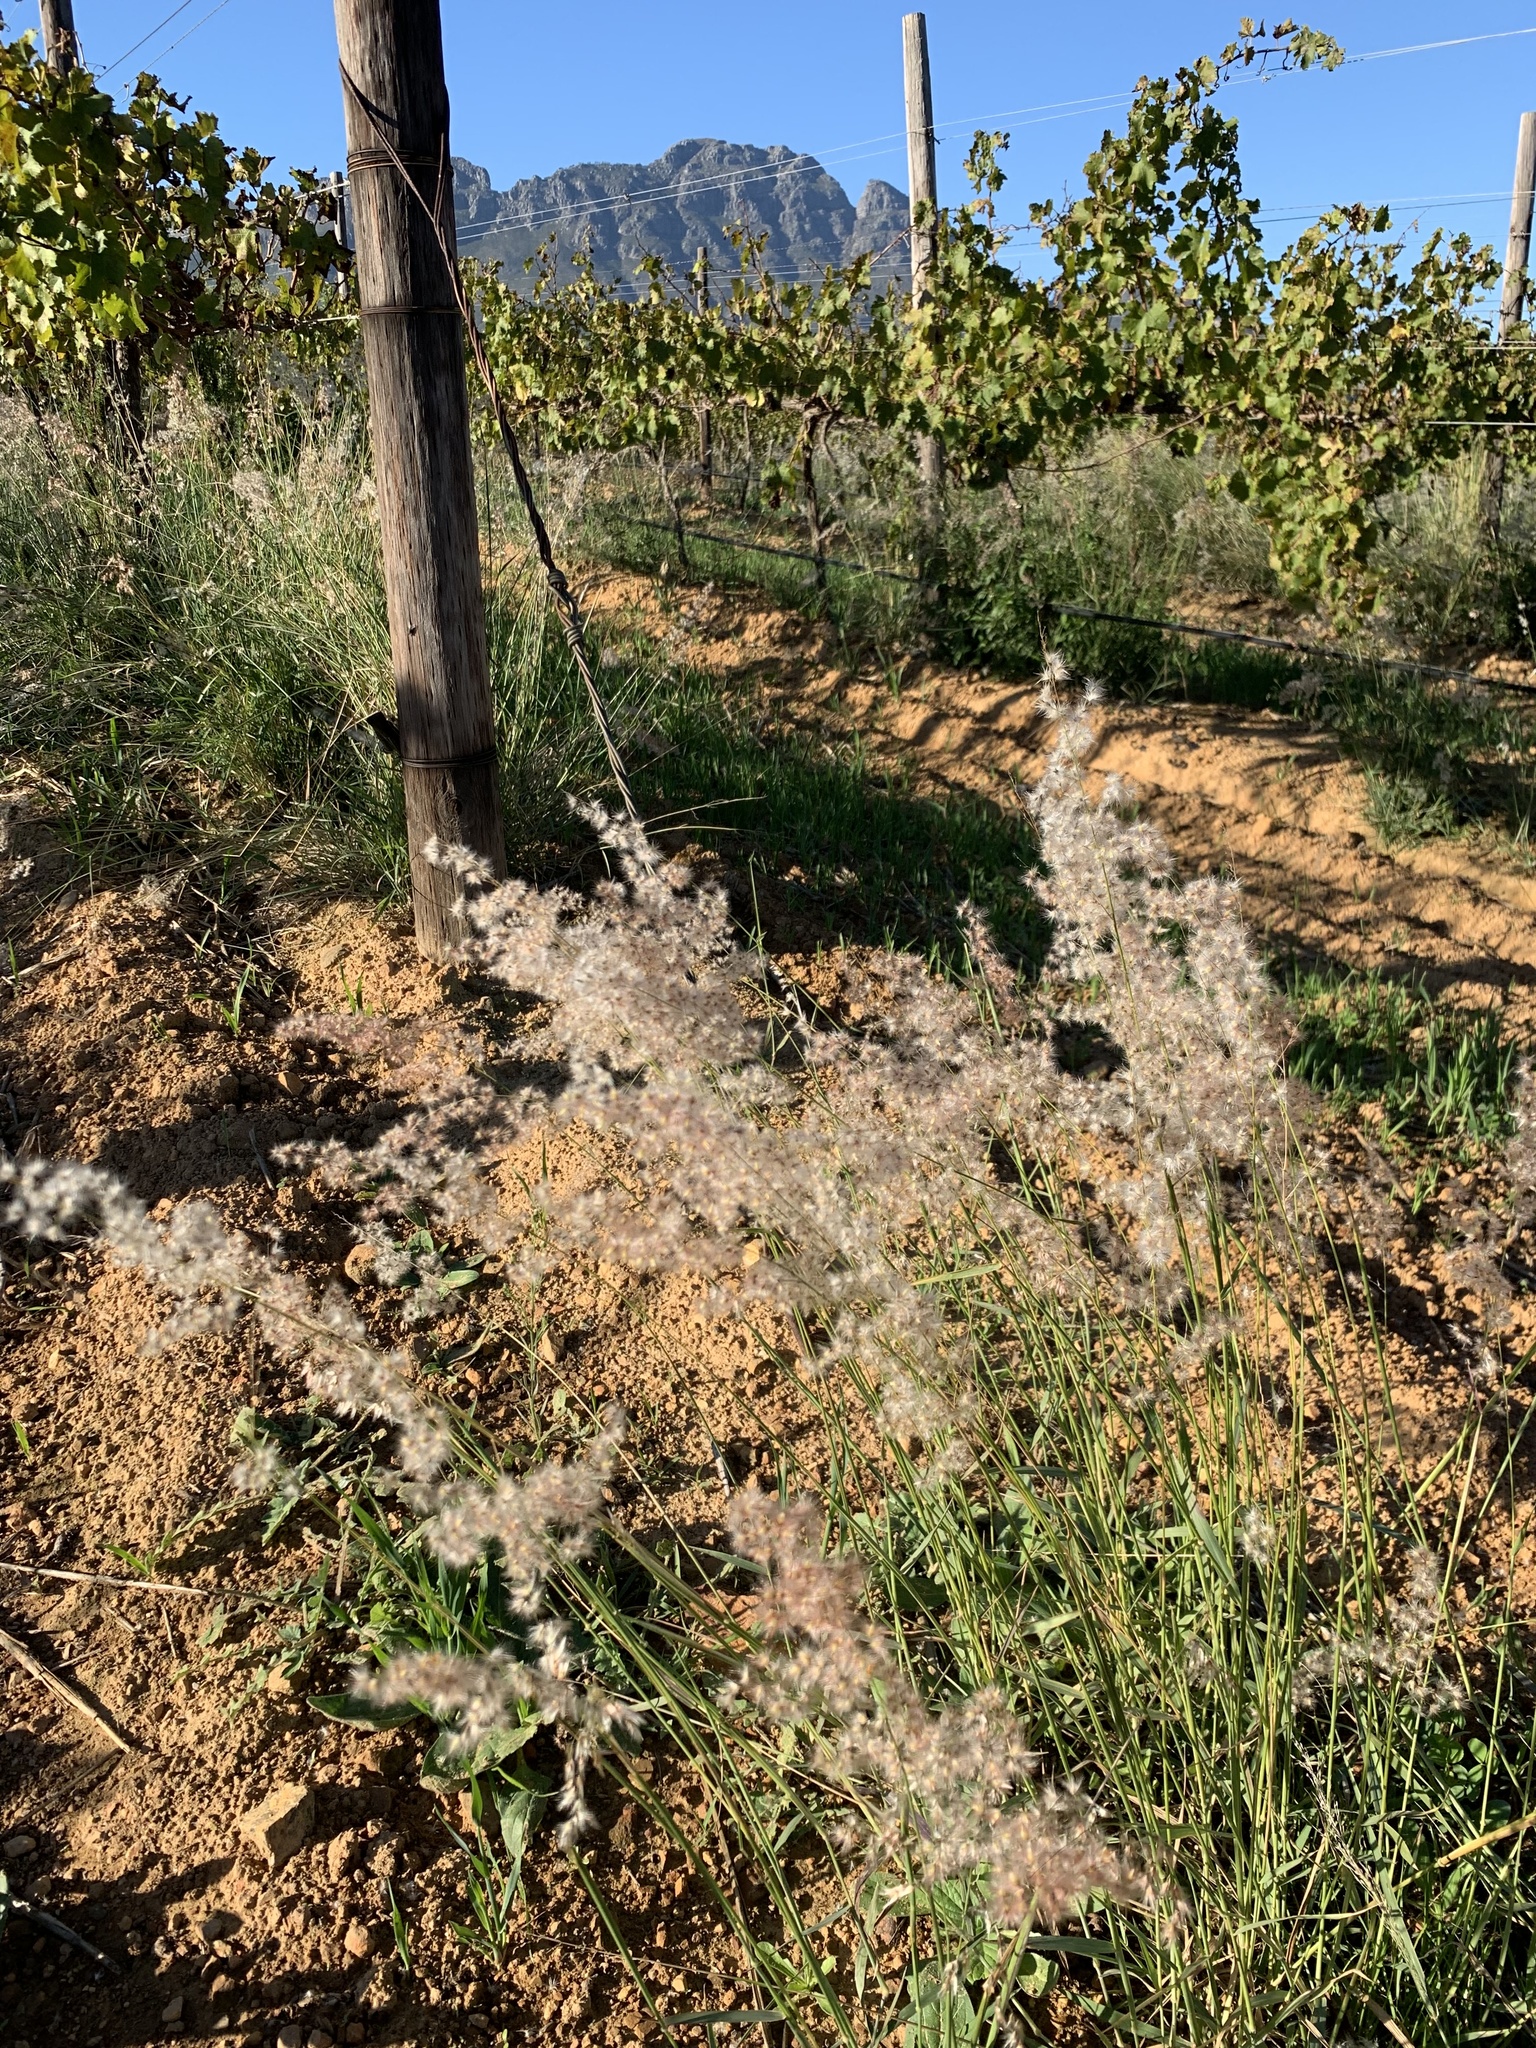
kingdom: Plantae
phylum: Tracheophyta
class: Liliopsida
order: Poales
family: Poaceae
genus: Melinis
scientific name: Melinis repens
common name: Rose natal grass
